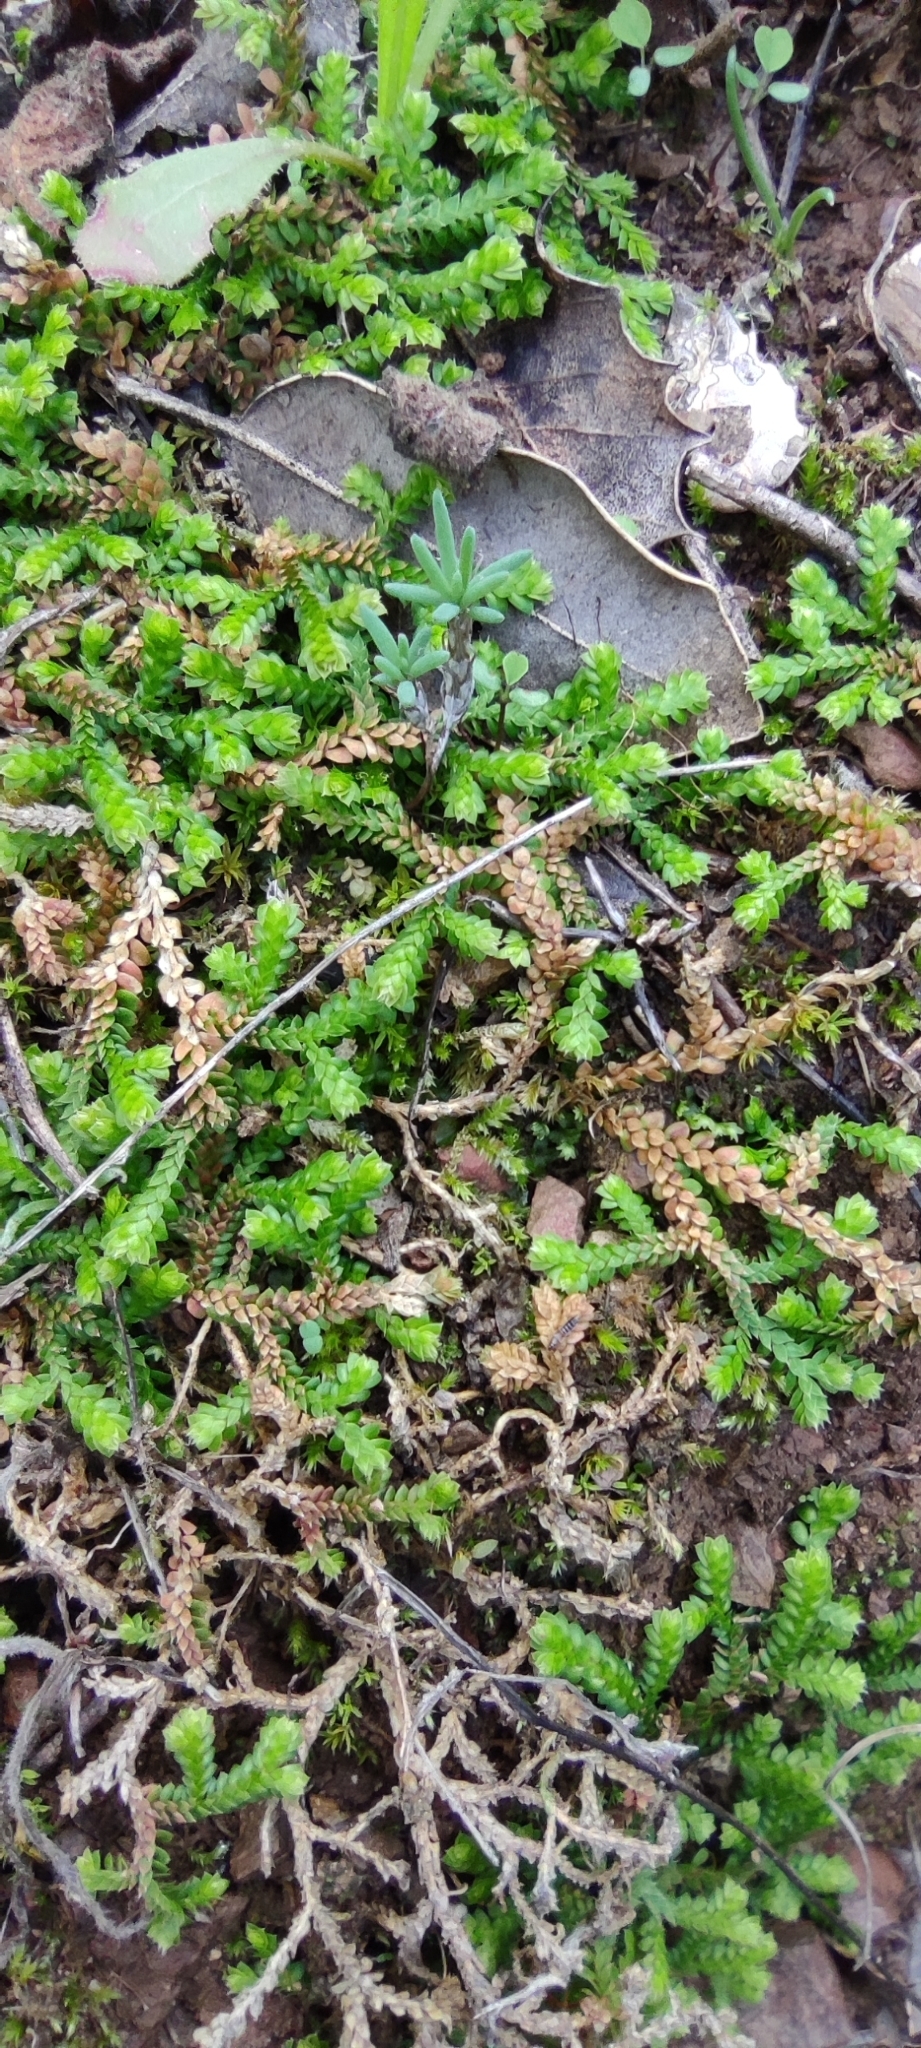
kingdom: Plantae
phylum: Tracheophyta
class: Lycopodiopsida
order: Selaginellales
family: Selaginellaceae
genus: Selaginella
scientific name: Selaginella denticulata
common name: Toothed-leaved clubmoss
